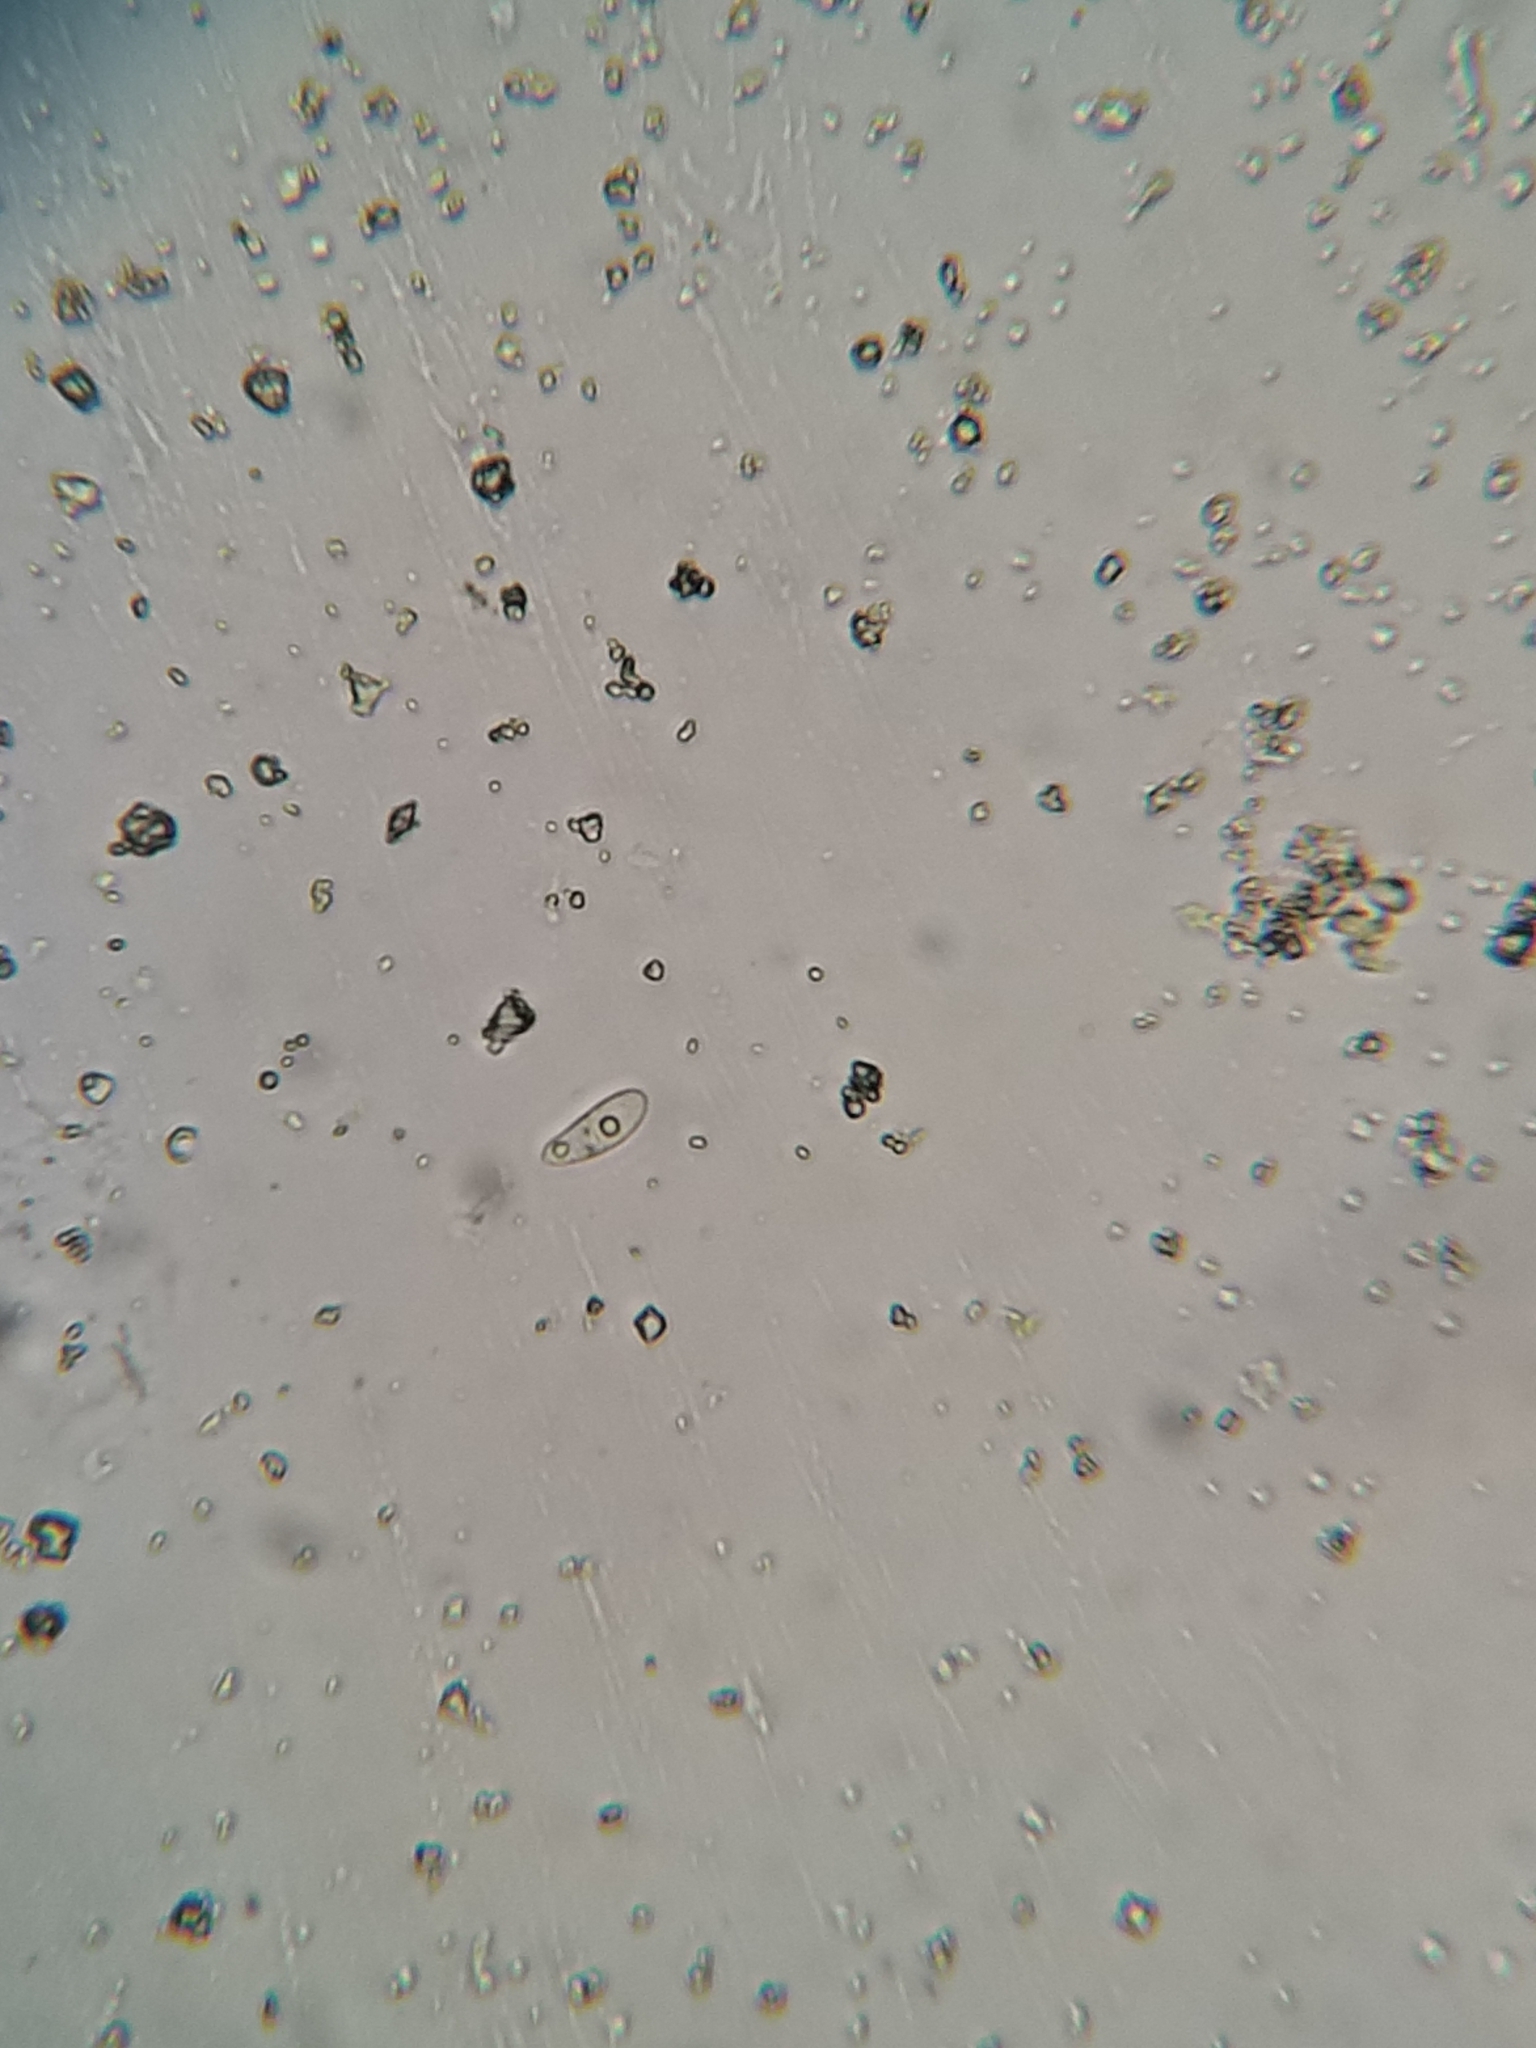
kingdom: Fungi
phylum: Ascomycota
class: Sordariomycetes
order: Xylariales
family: Apiosporaceae
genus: Apiosporella
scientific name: Apiosporella caudata
